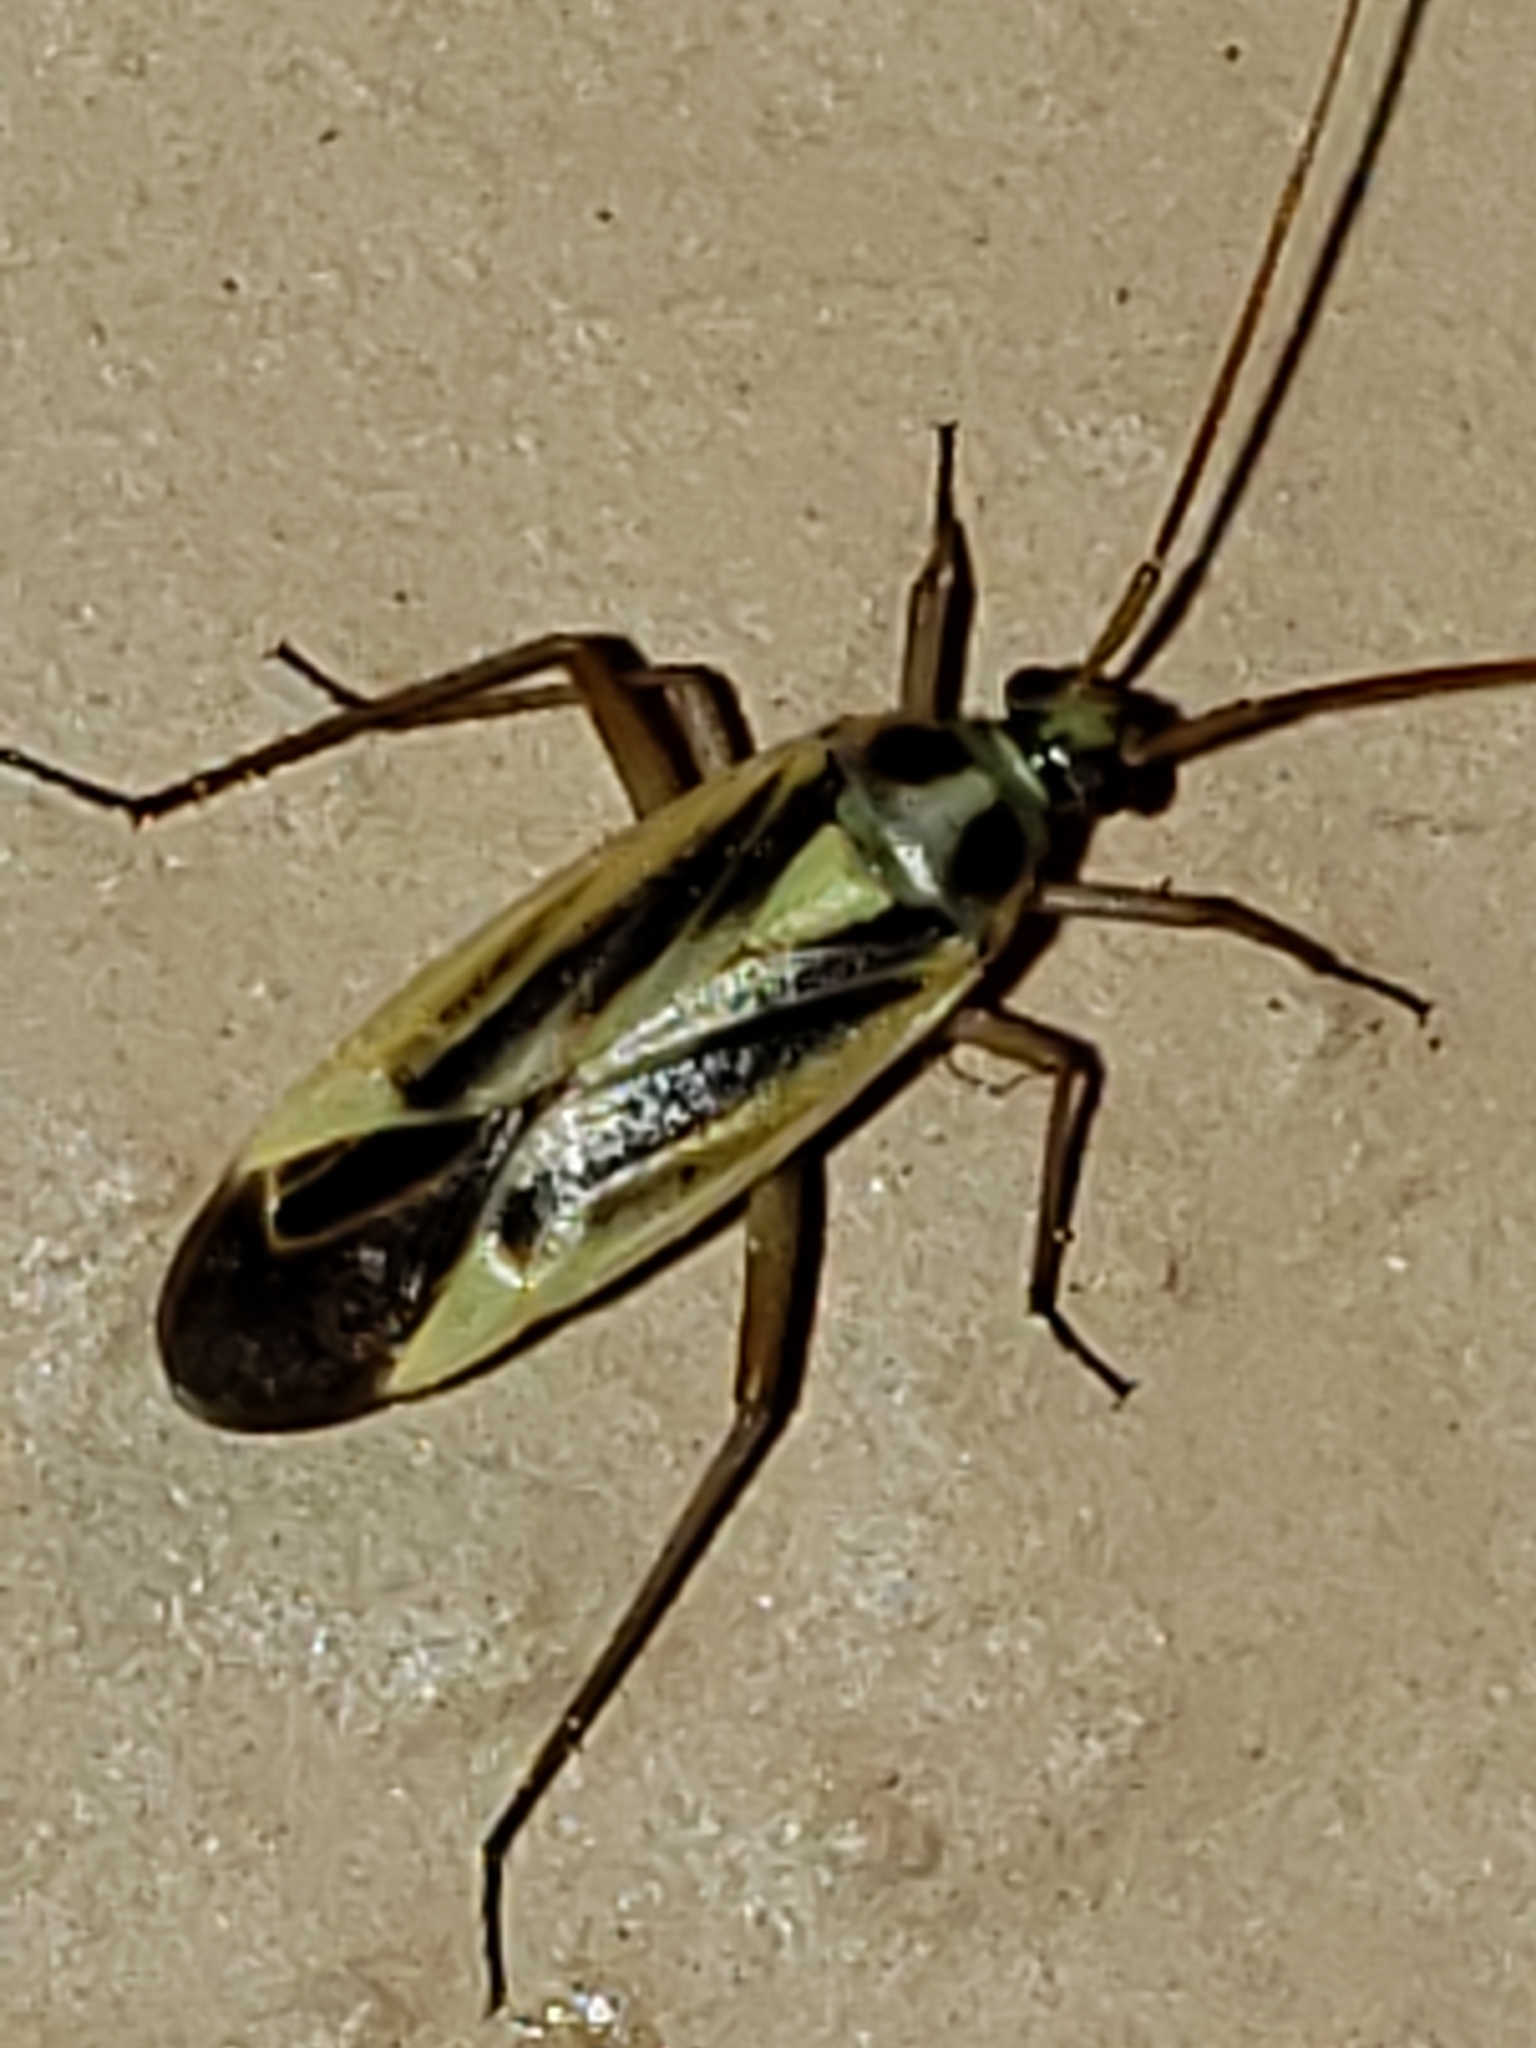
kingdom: Animalia
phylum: Arthropoda
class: Insecta
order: Hemiptera
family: Miridae
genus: Stenotus
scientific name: Stenotus binotatus
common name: Plant bug
